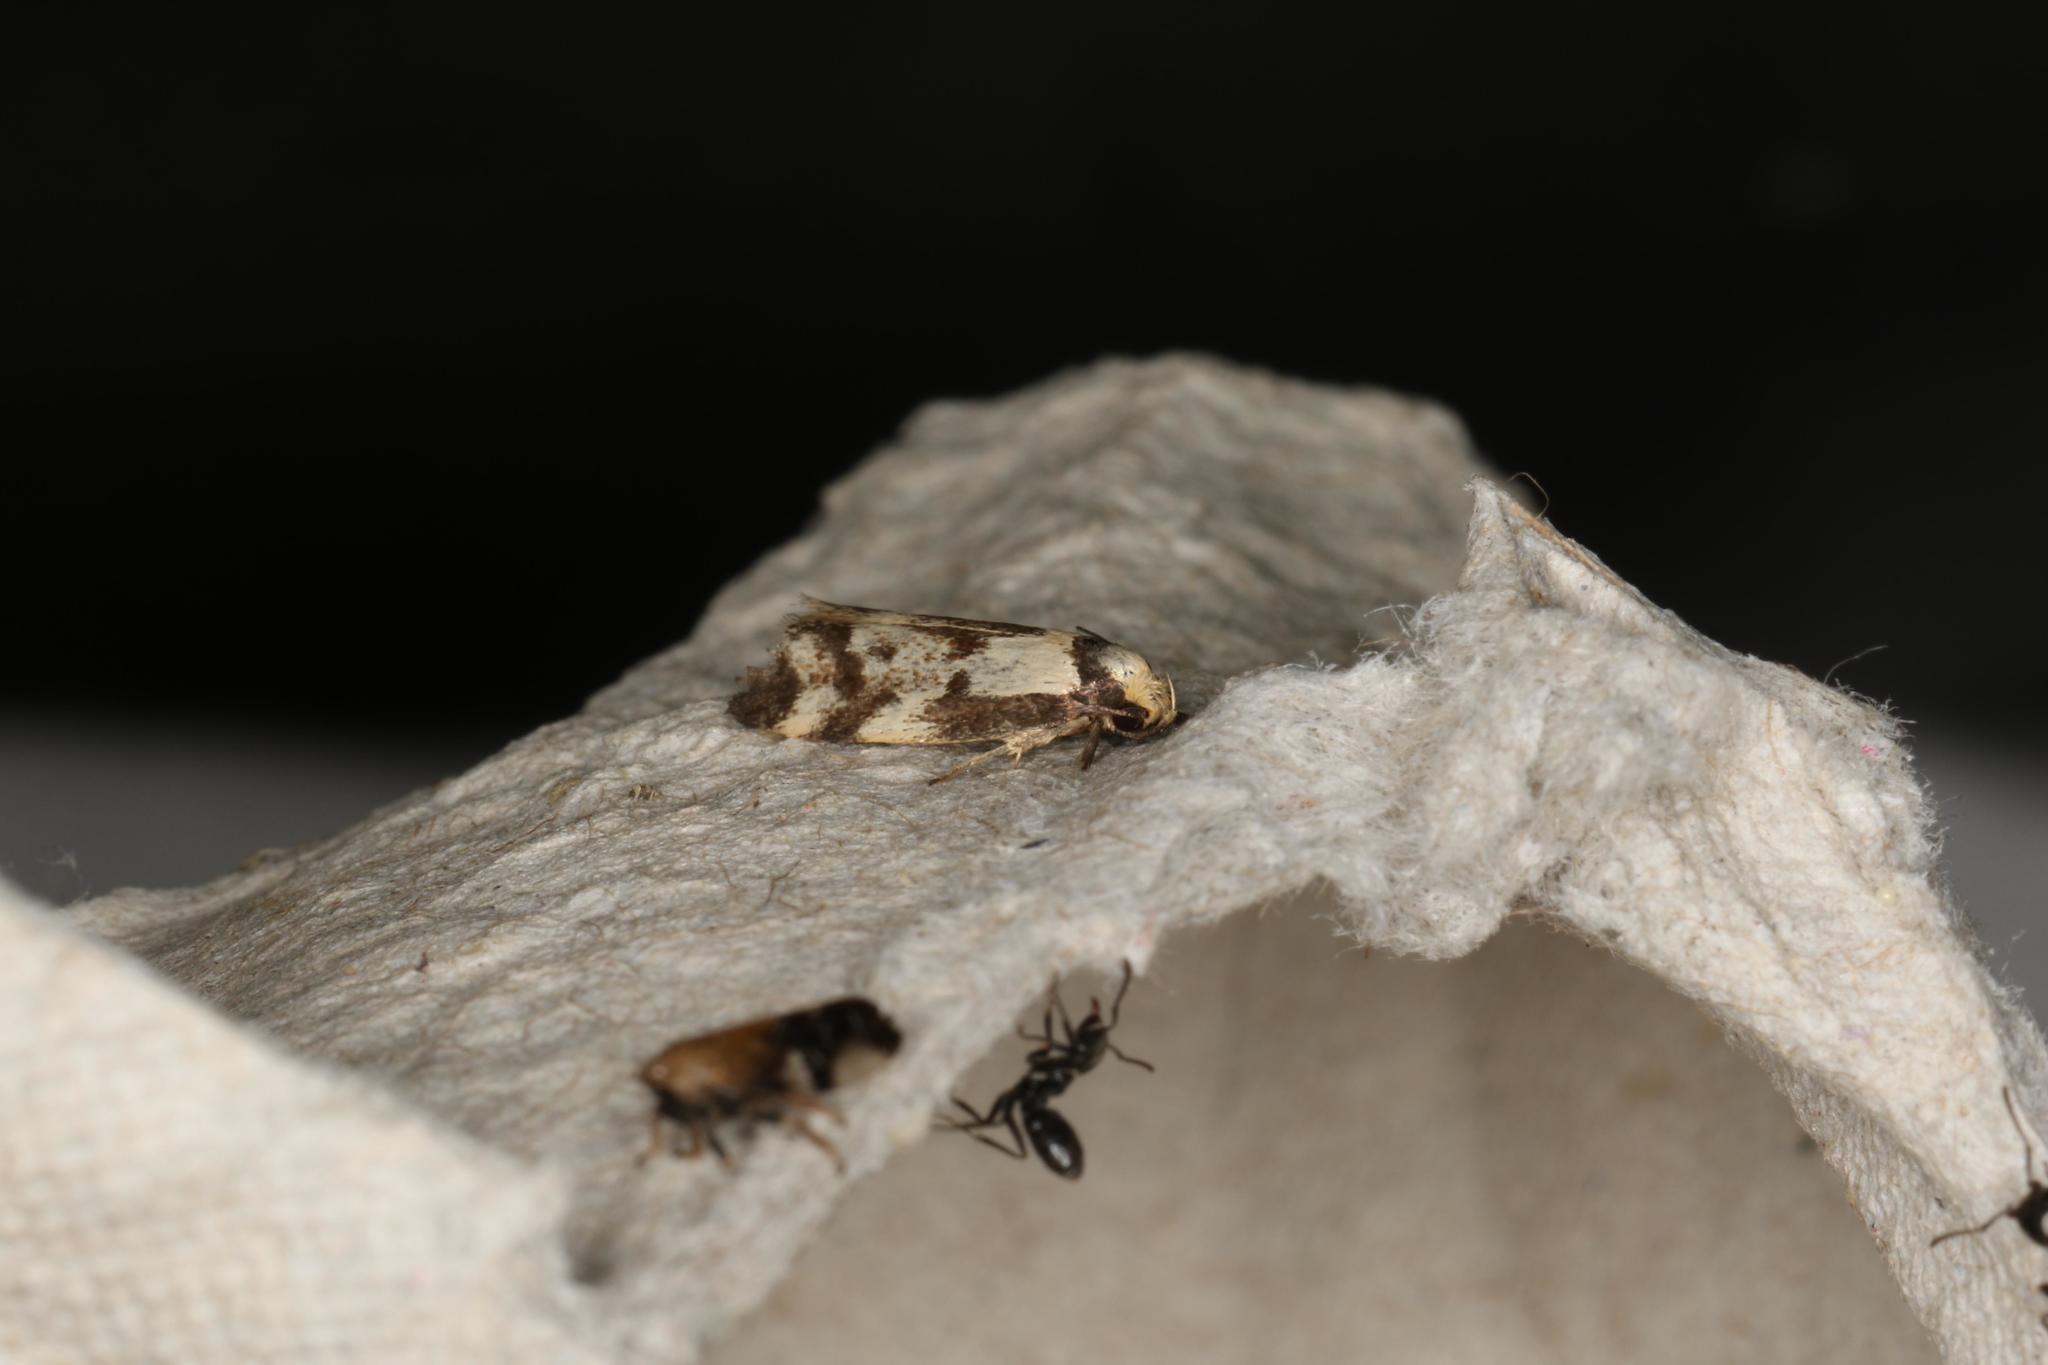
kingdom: Animalia
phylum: Arthropoda
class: Insecta
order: Lepidoptera
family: Oecophoridae
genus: Palimmeces
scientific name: Palimmeces variegata
